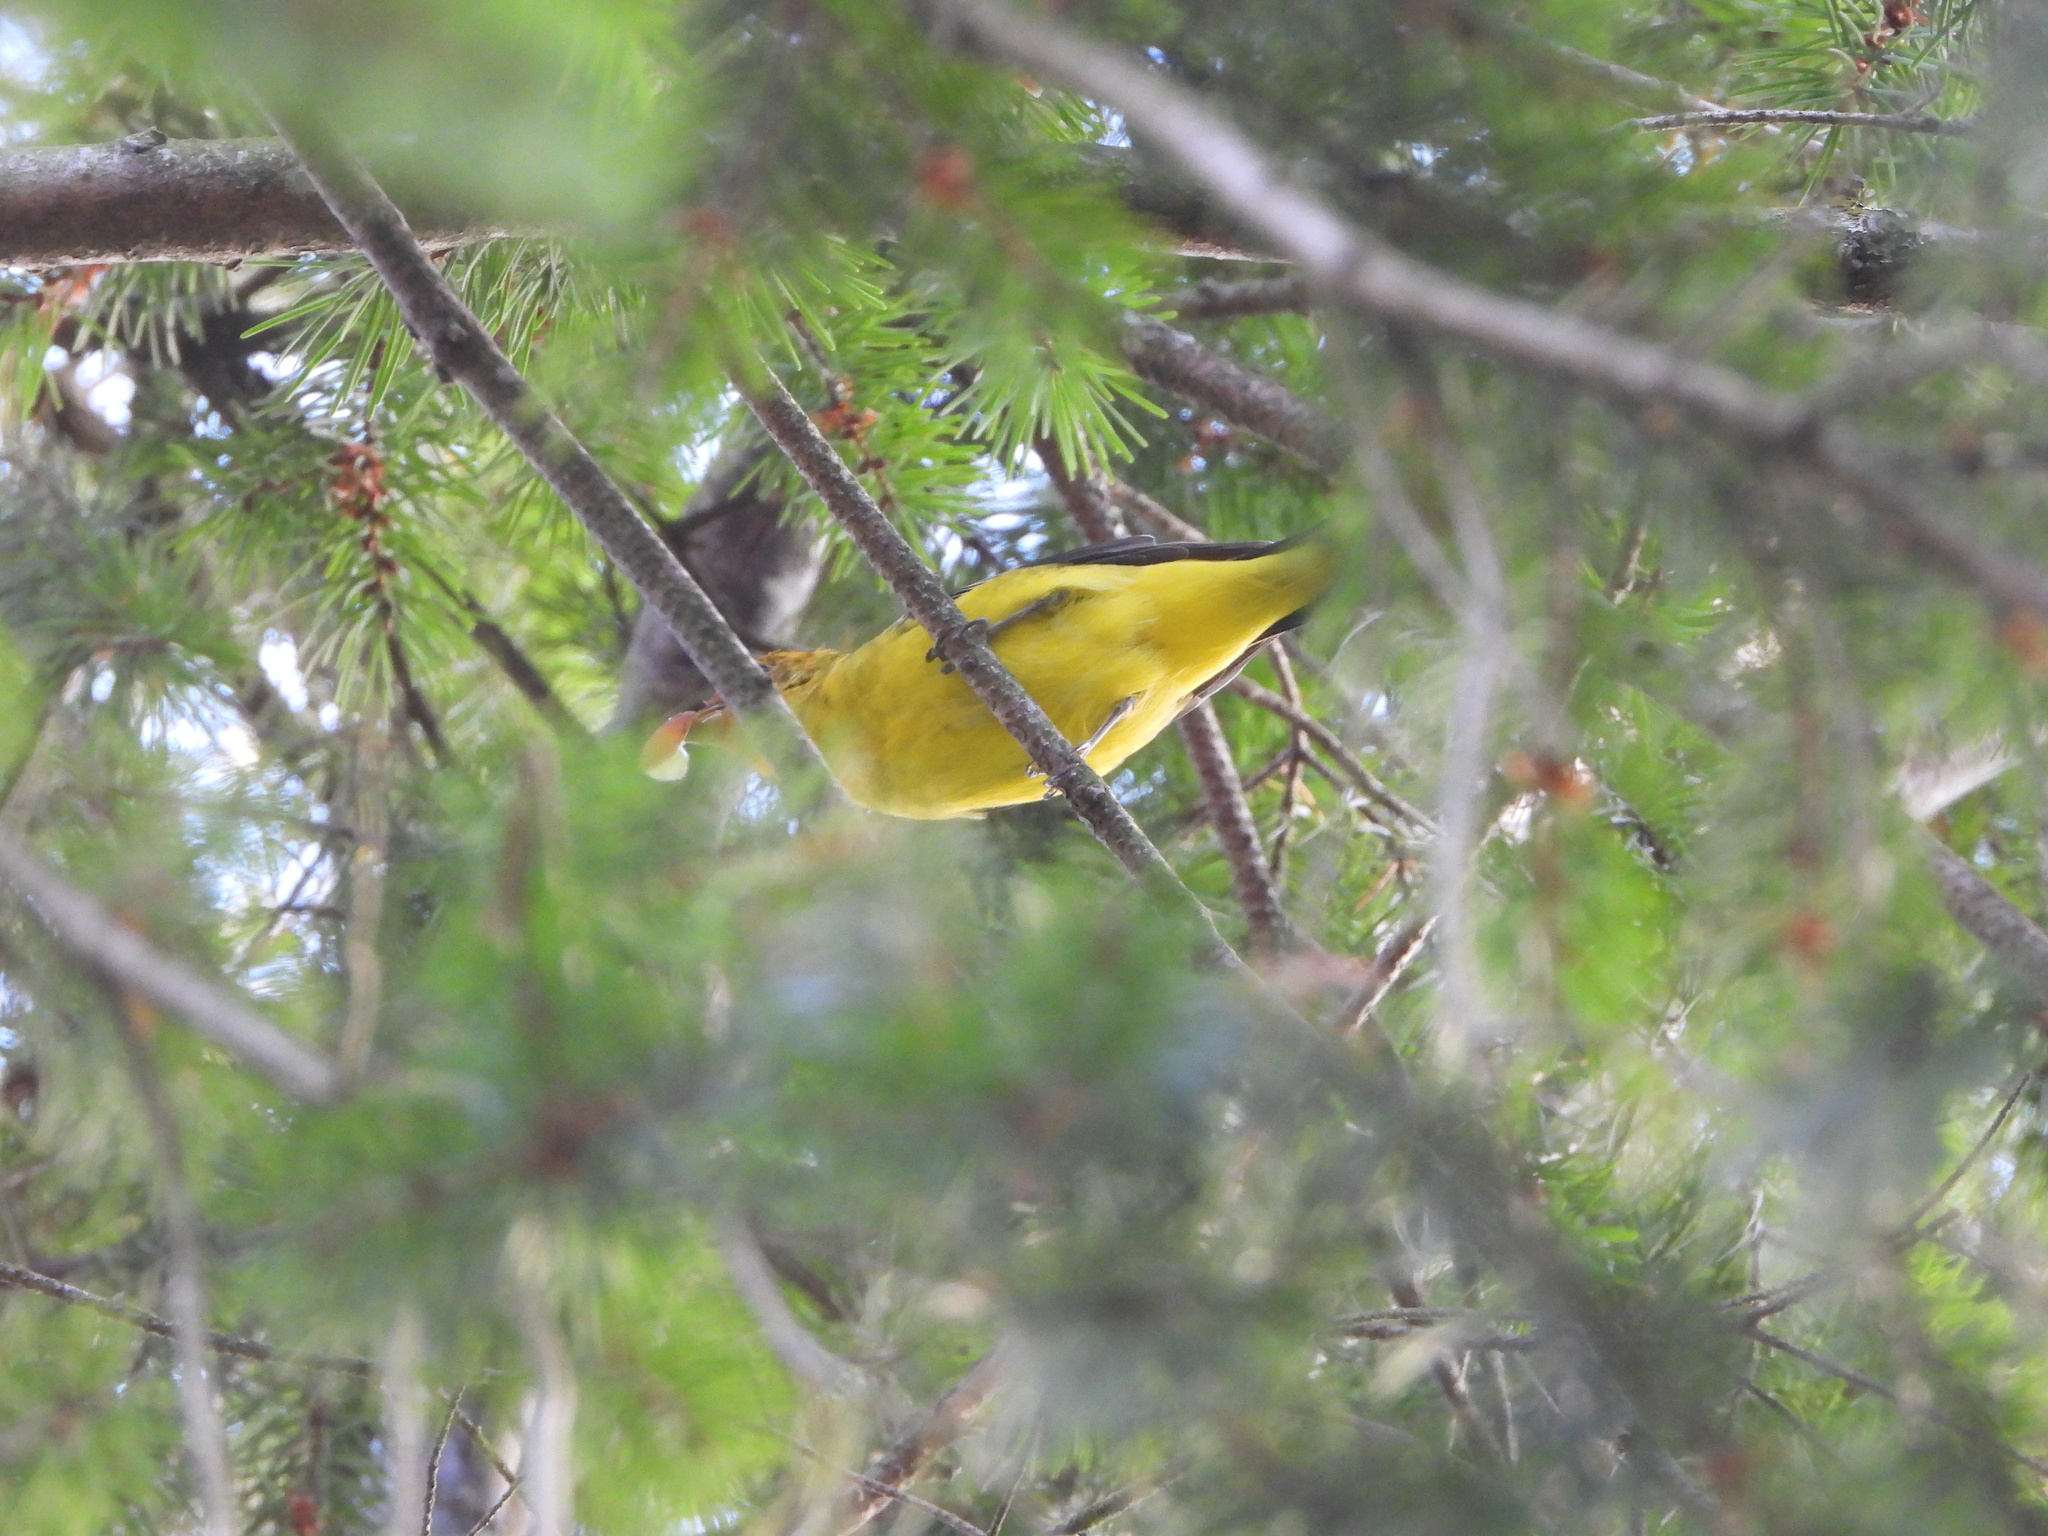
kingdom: Animalia
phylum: Chordata
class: Aves
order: Passeriformes
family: Cardinalidae
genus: Piranga
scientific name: Piranga ludoviciana
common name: Western tanager
